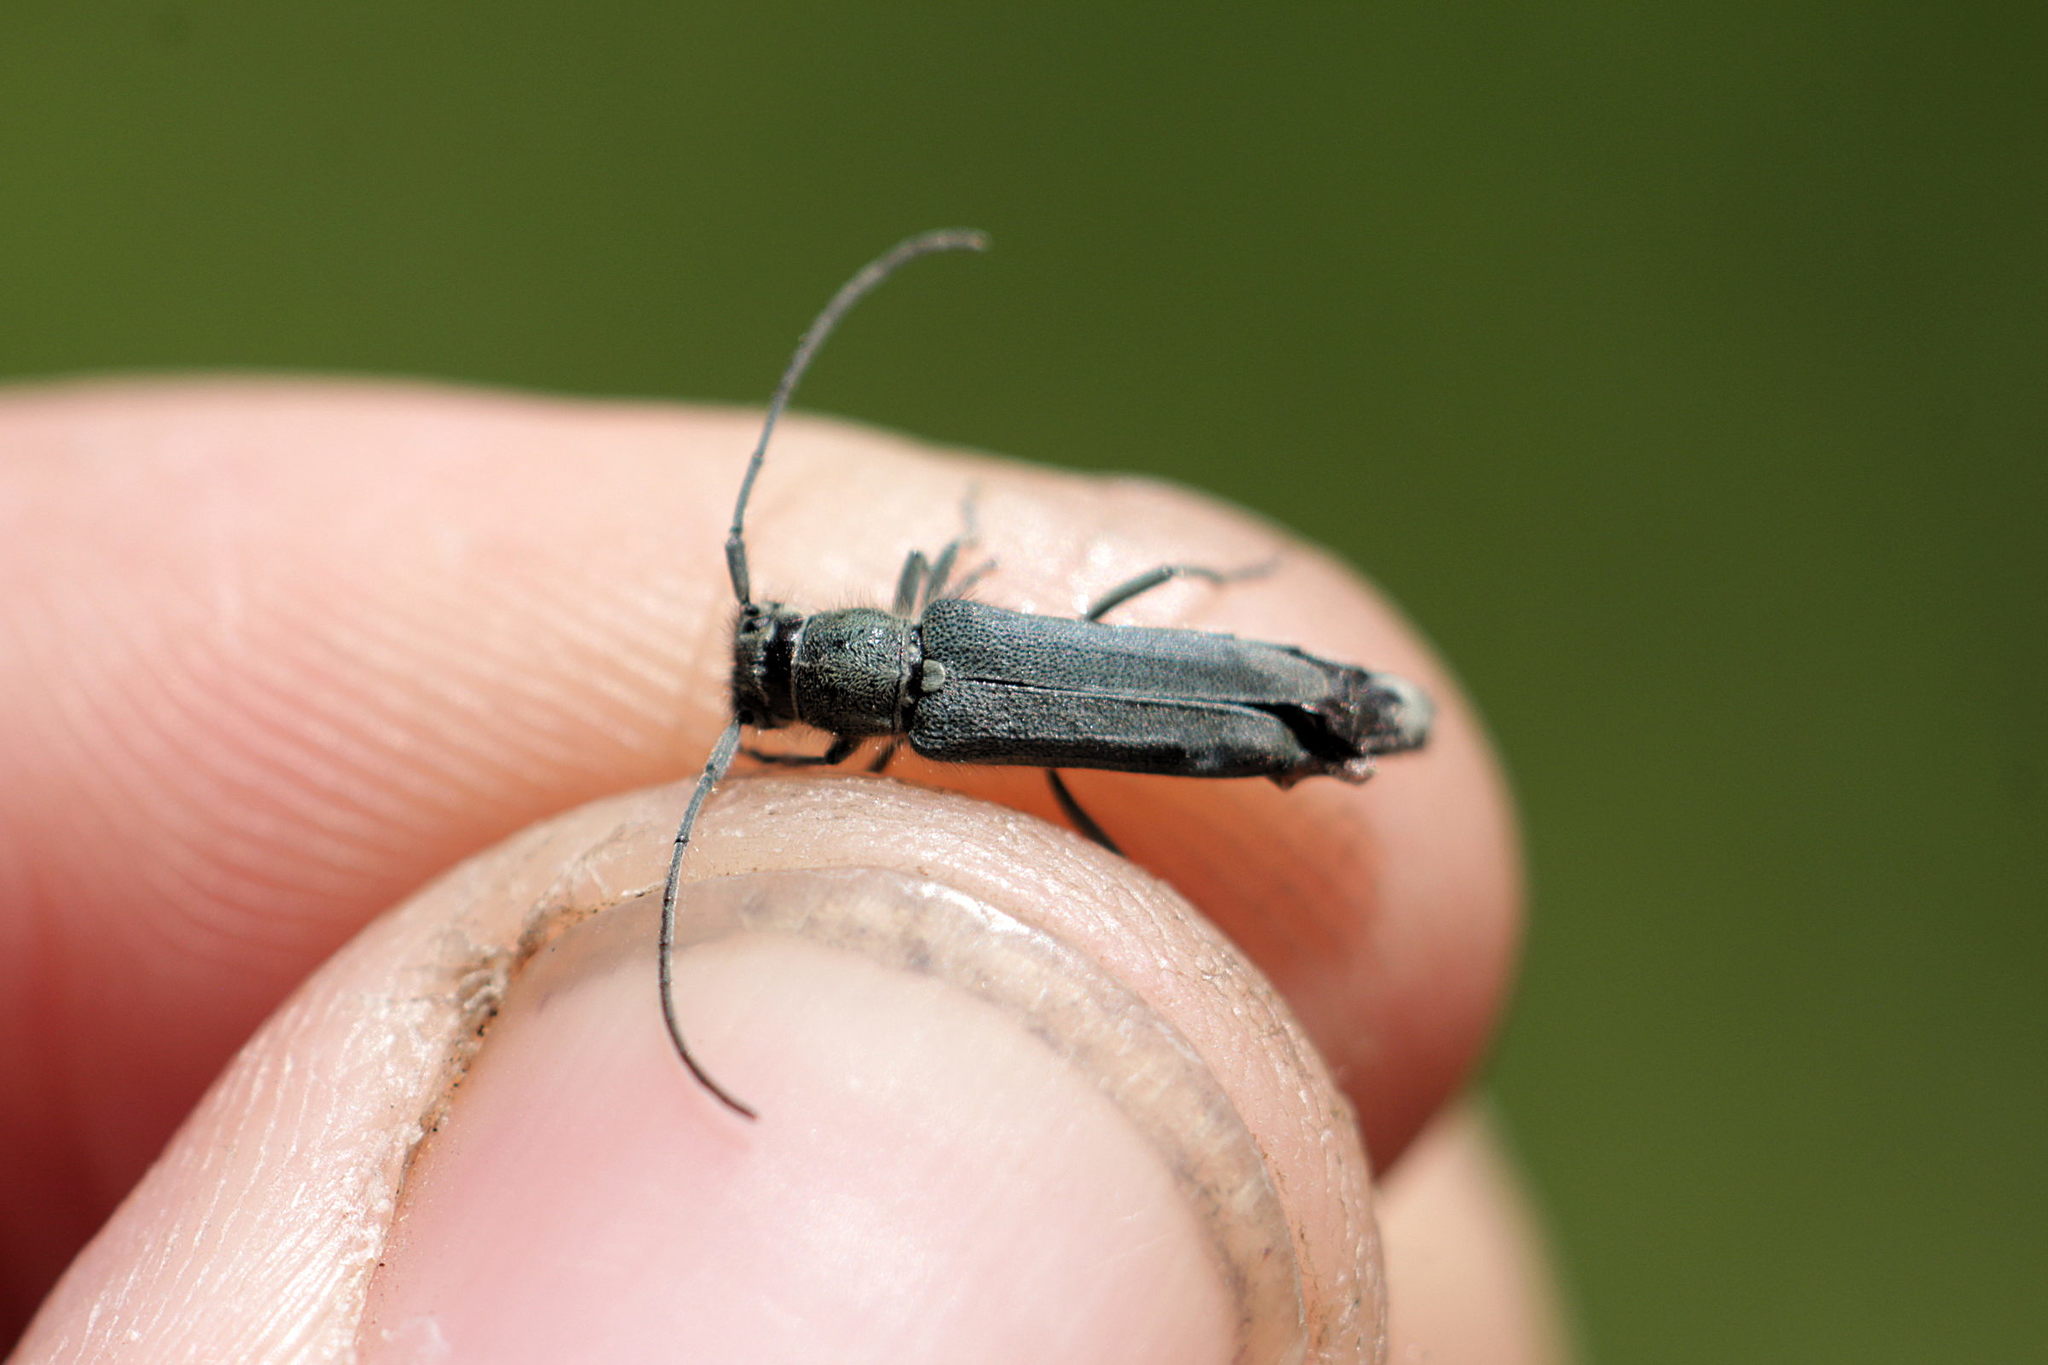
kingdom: Animalia
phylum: Arthropoda
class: Insecta
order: Coleoptera
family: Cerambycidae
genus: Phytoecia
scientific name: Phytoecia coerulescens
